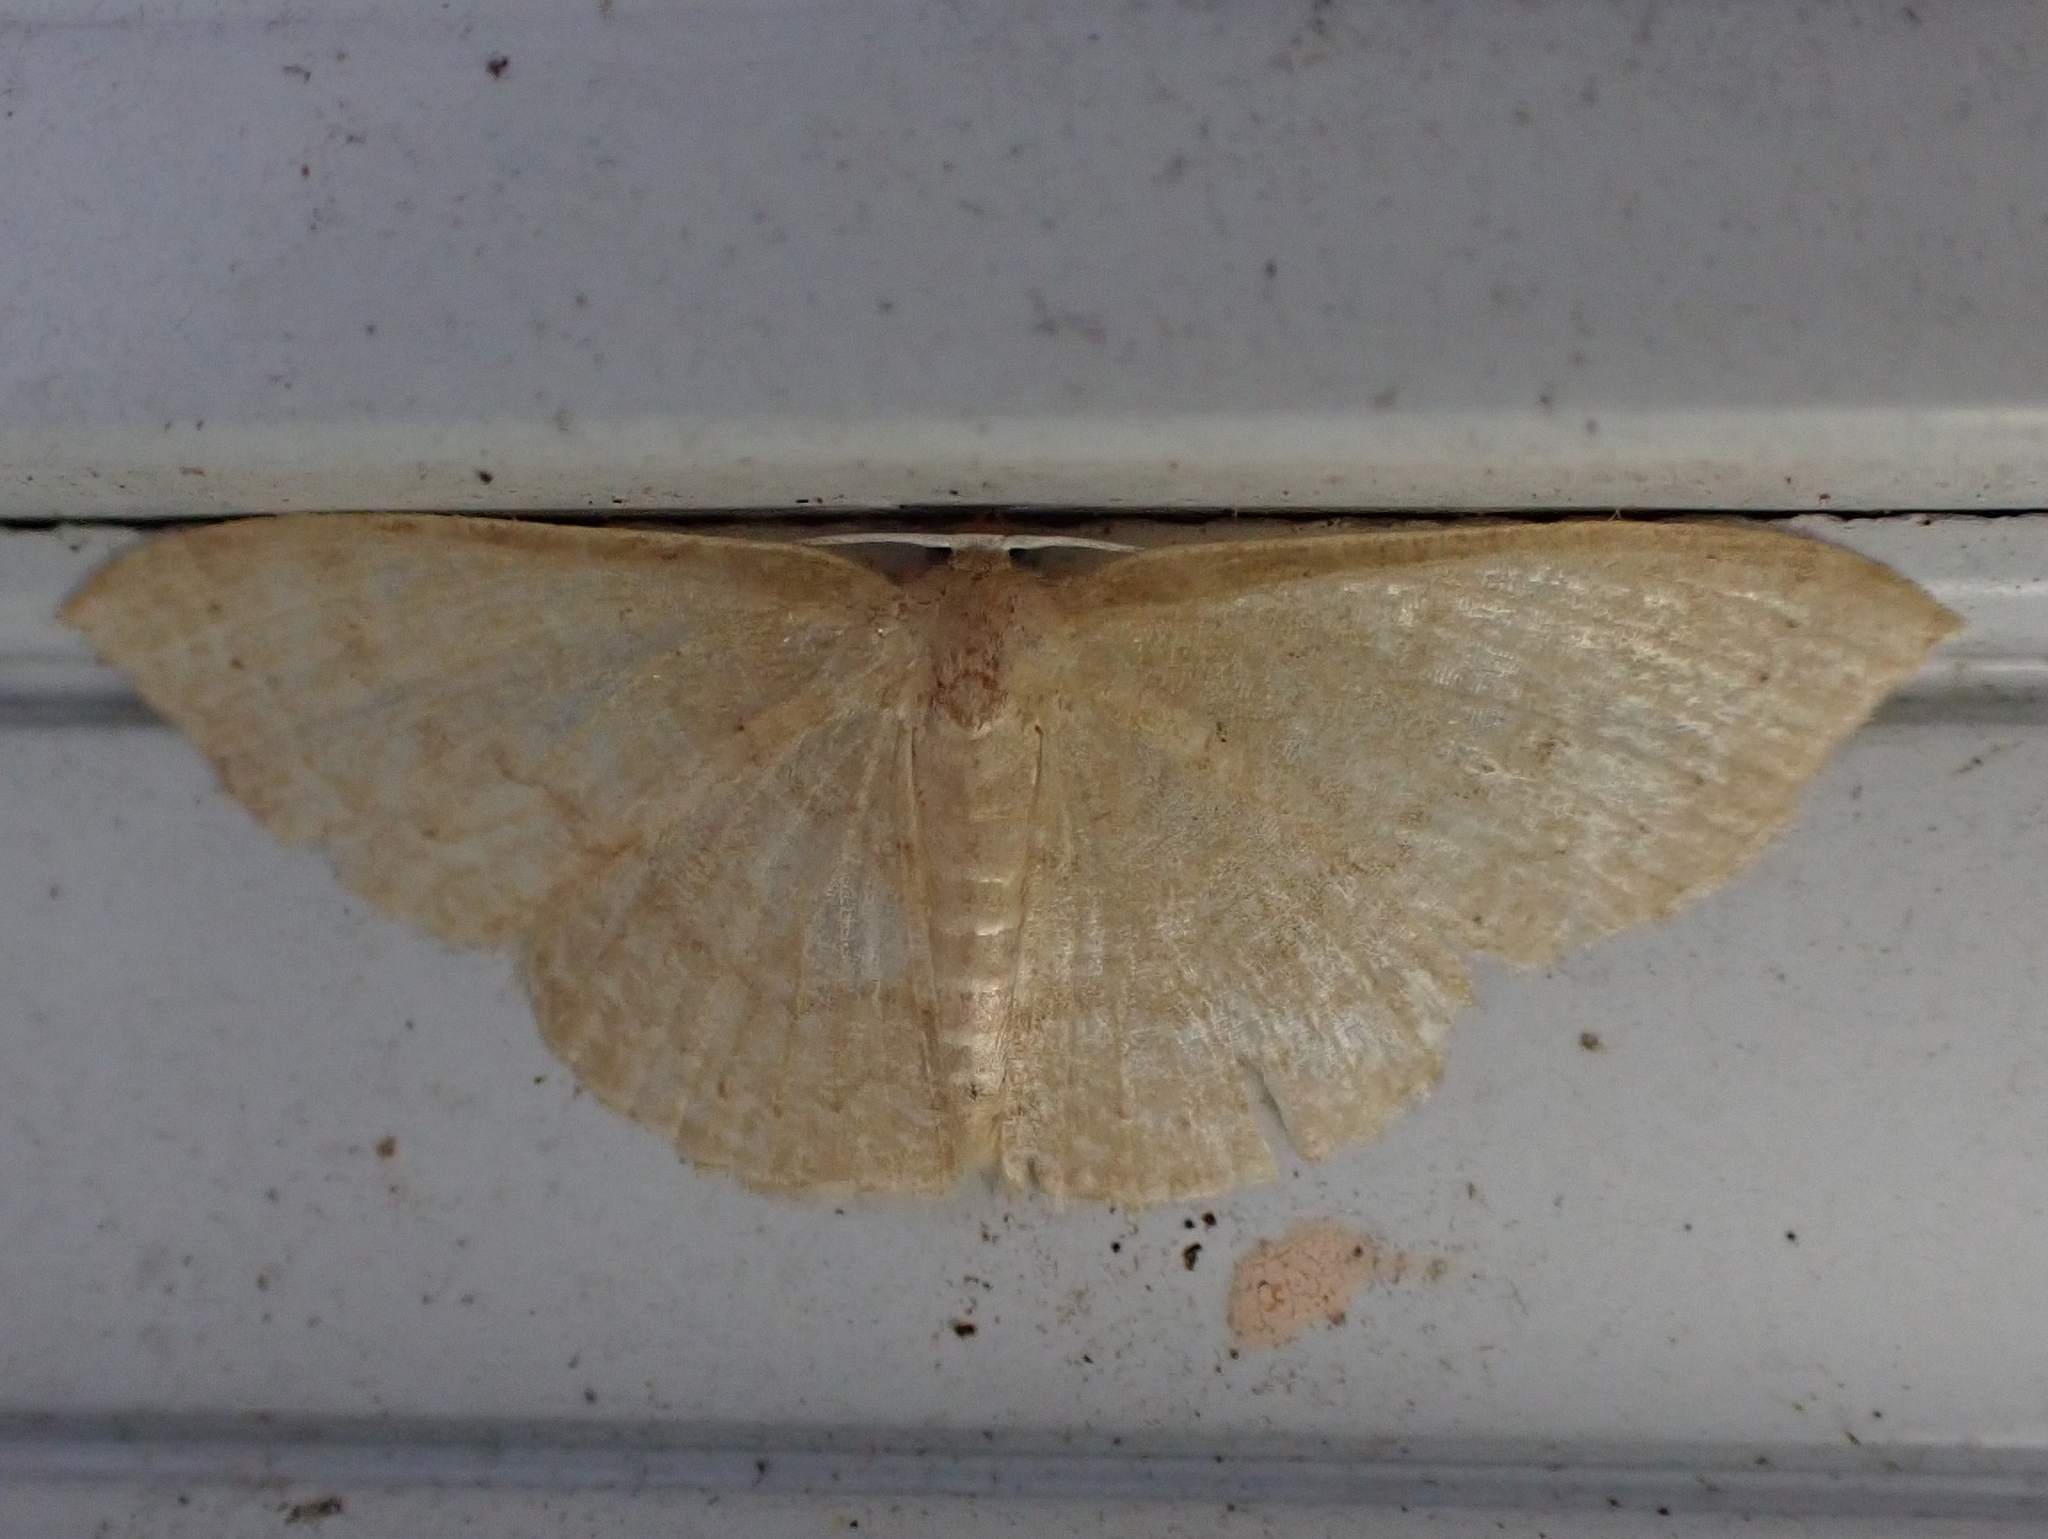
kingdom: Animalia
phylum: Arthropoda
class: Insecta
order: Lepidoptera
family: Geometridae
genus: Pleuroprucha
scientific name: Pleuroprucha insulsaria
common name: Common tan wave
